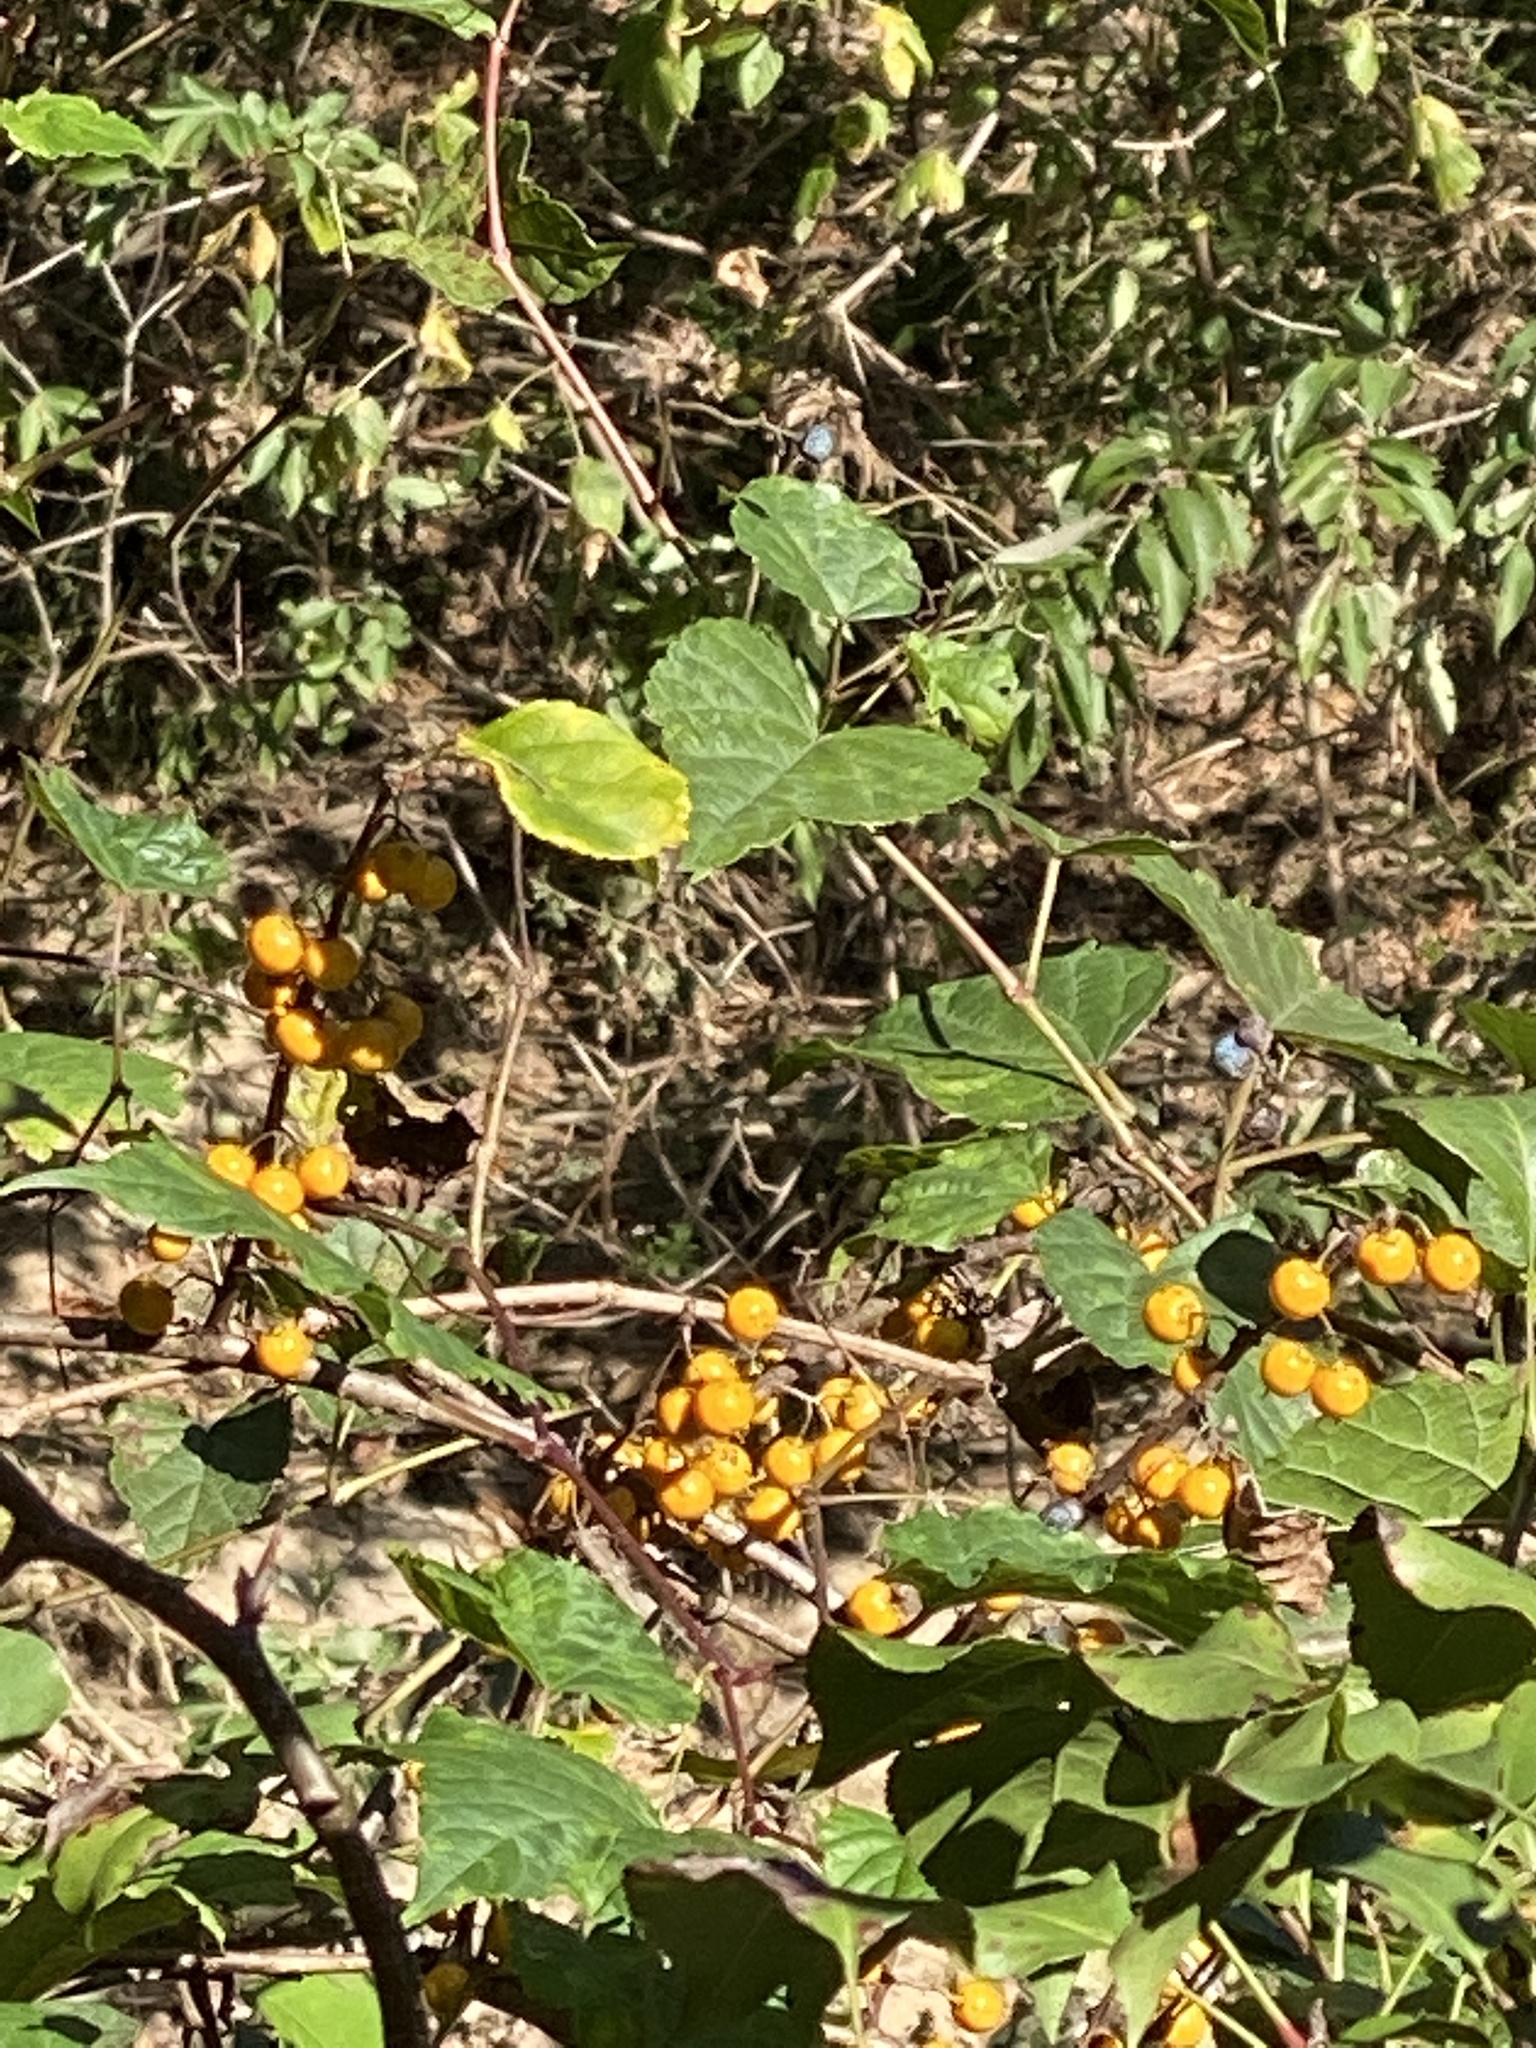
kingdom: Plantae
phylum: Tracheophyta
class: Magnoliopsida
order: Celastrales
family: Celastraceae
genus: Celastrus
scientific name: Celastrus orbiculatus
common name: Oriental bittersweet
